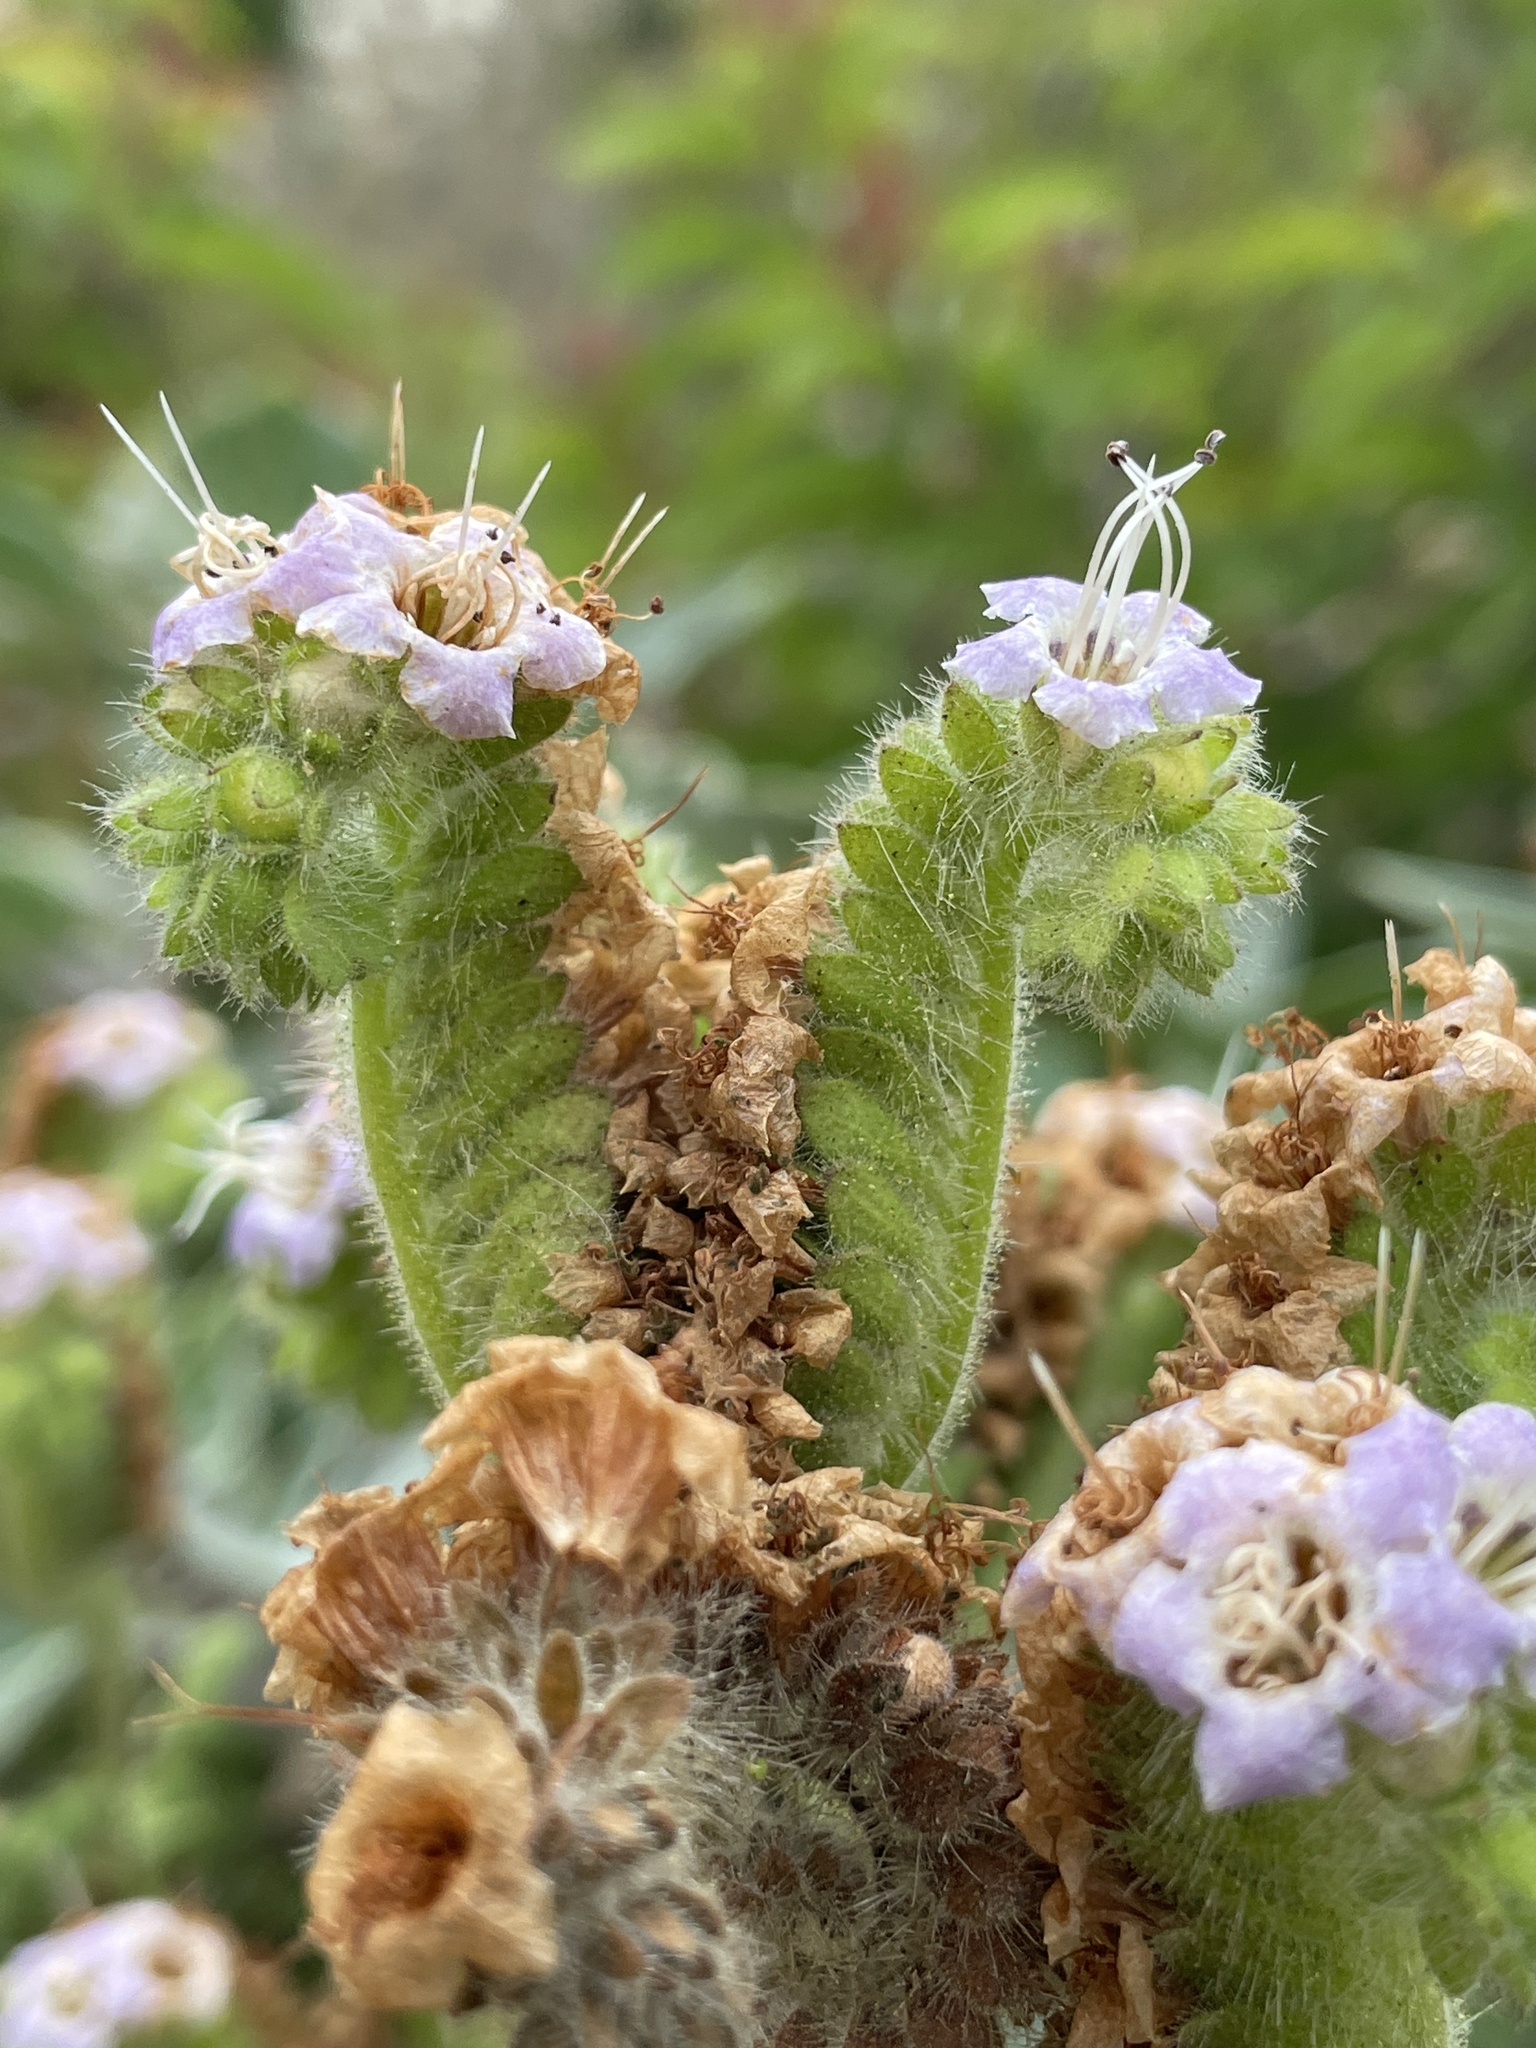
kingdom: Plantae
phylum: Tracheophyta
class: Magnoliopsida
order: Boraginales
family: Hydrophyllaceae
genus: Phacelia
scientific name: Phacelia ramosissima
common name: Branching phacelia
